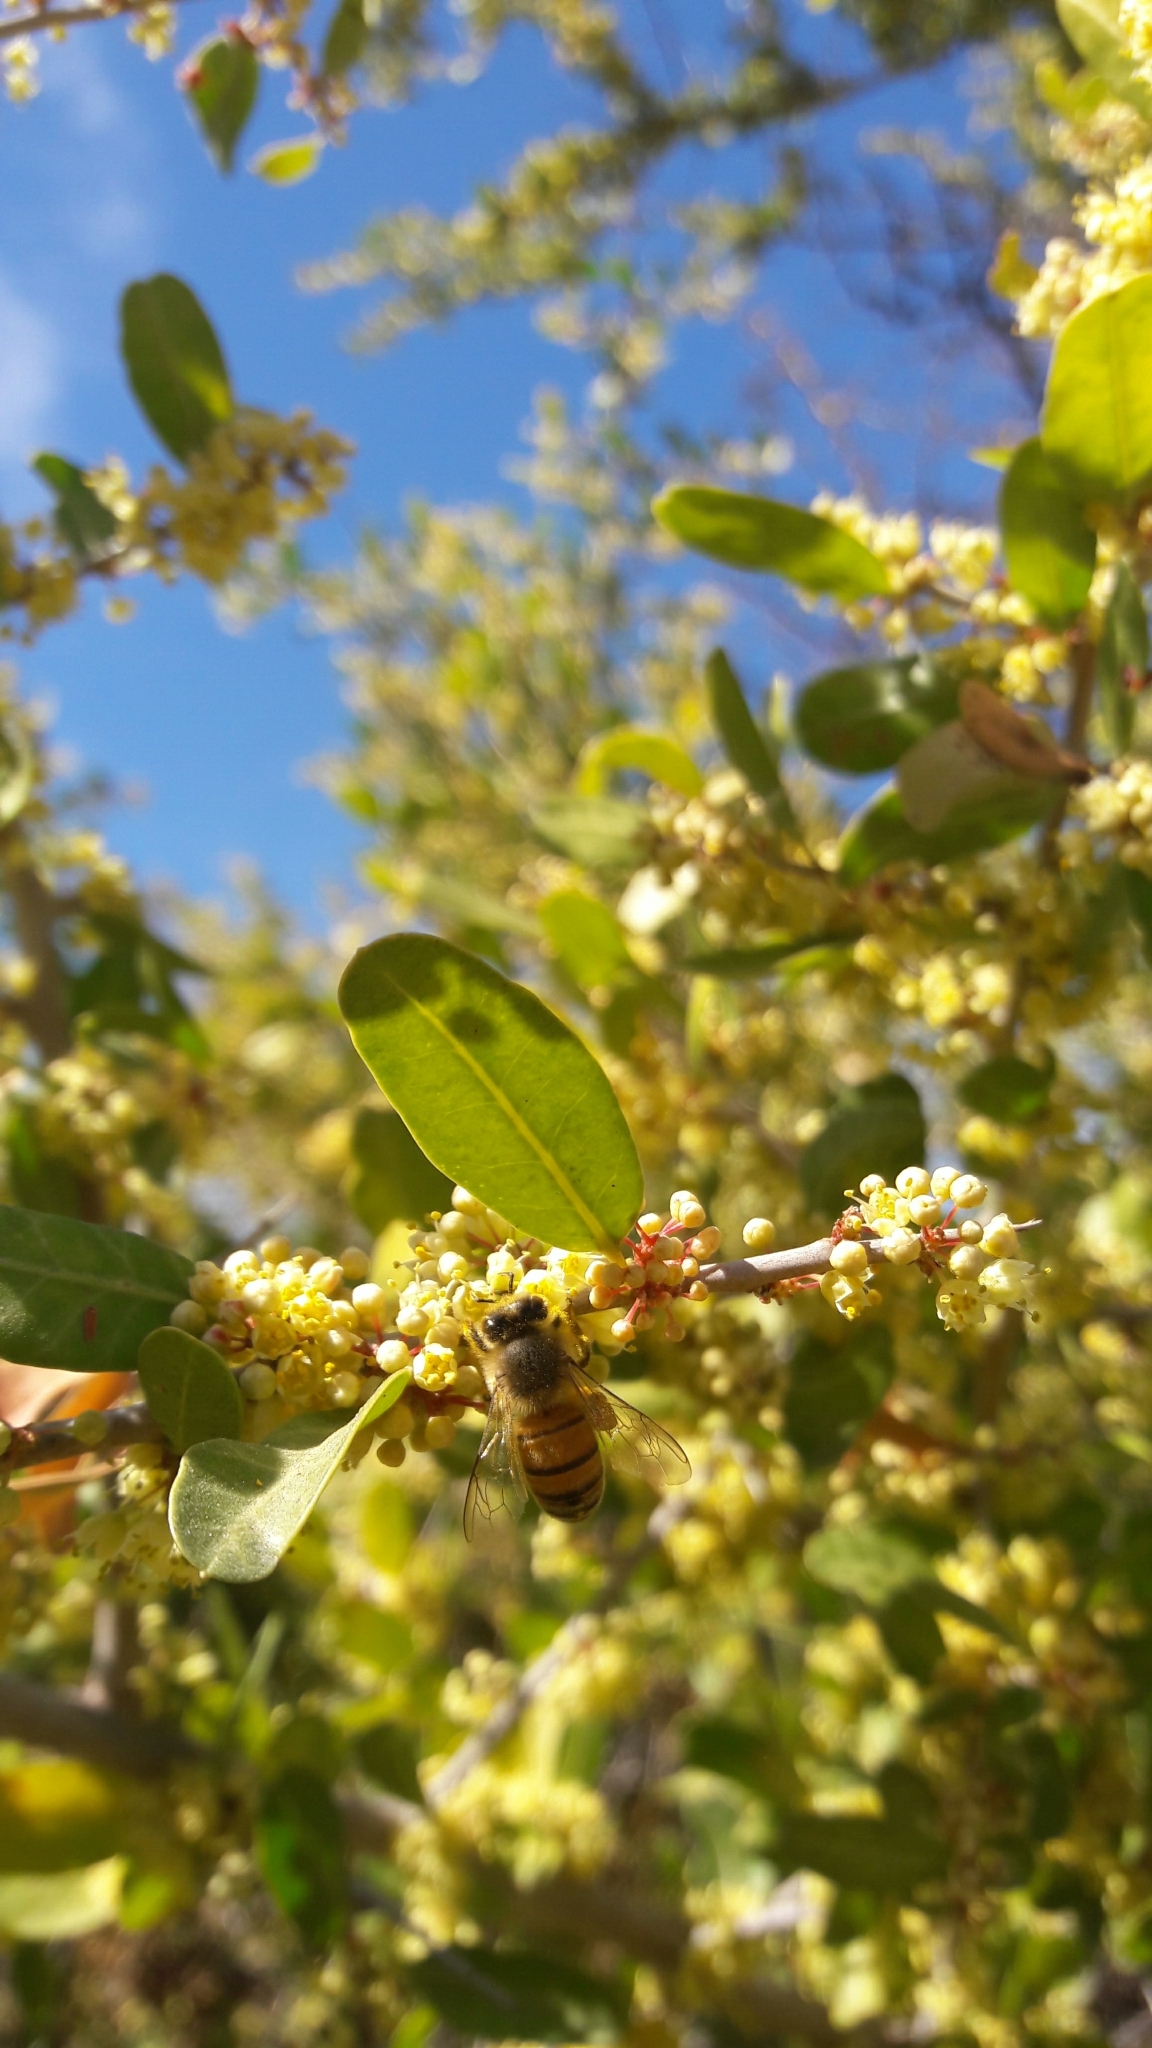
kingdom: Plantae
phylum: Tracheophyta
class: Magnoliopsida
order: Sapindales
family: Anacardiaceae
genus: Schinus
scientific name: Schinus bumelioides
